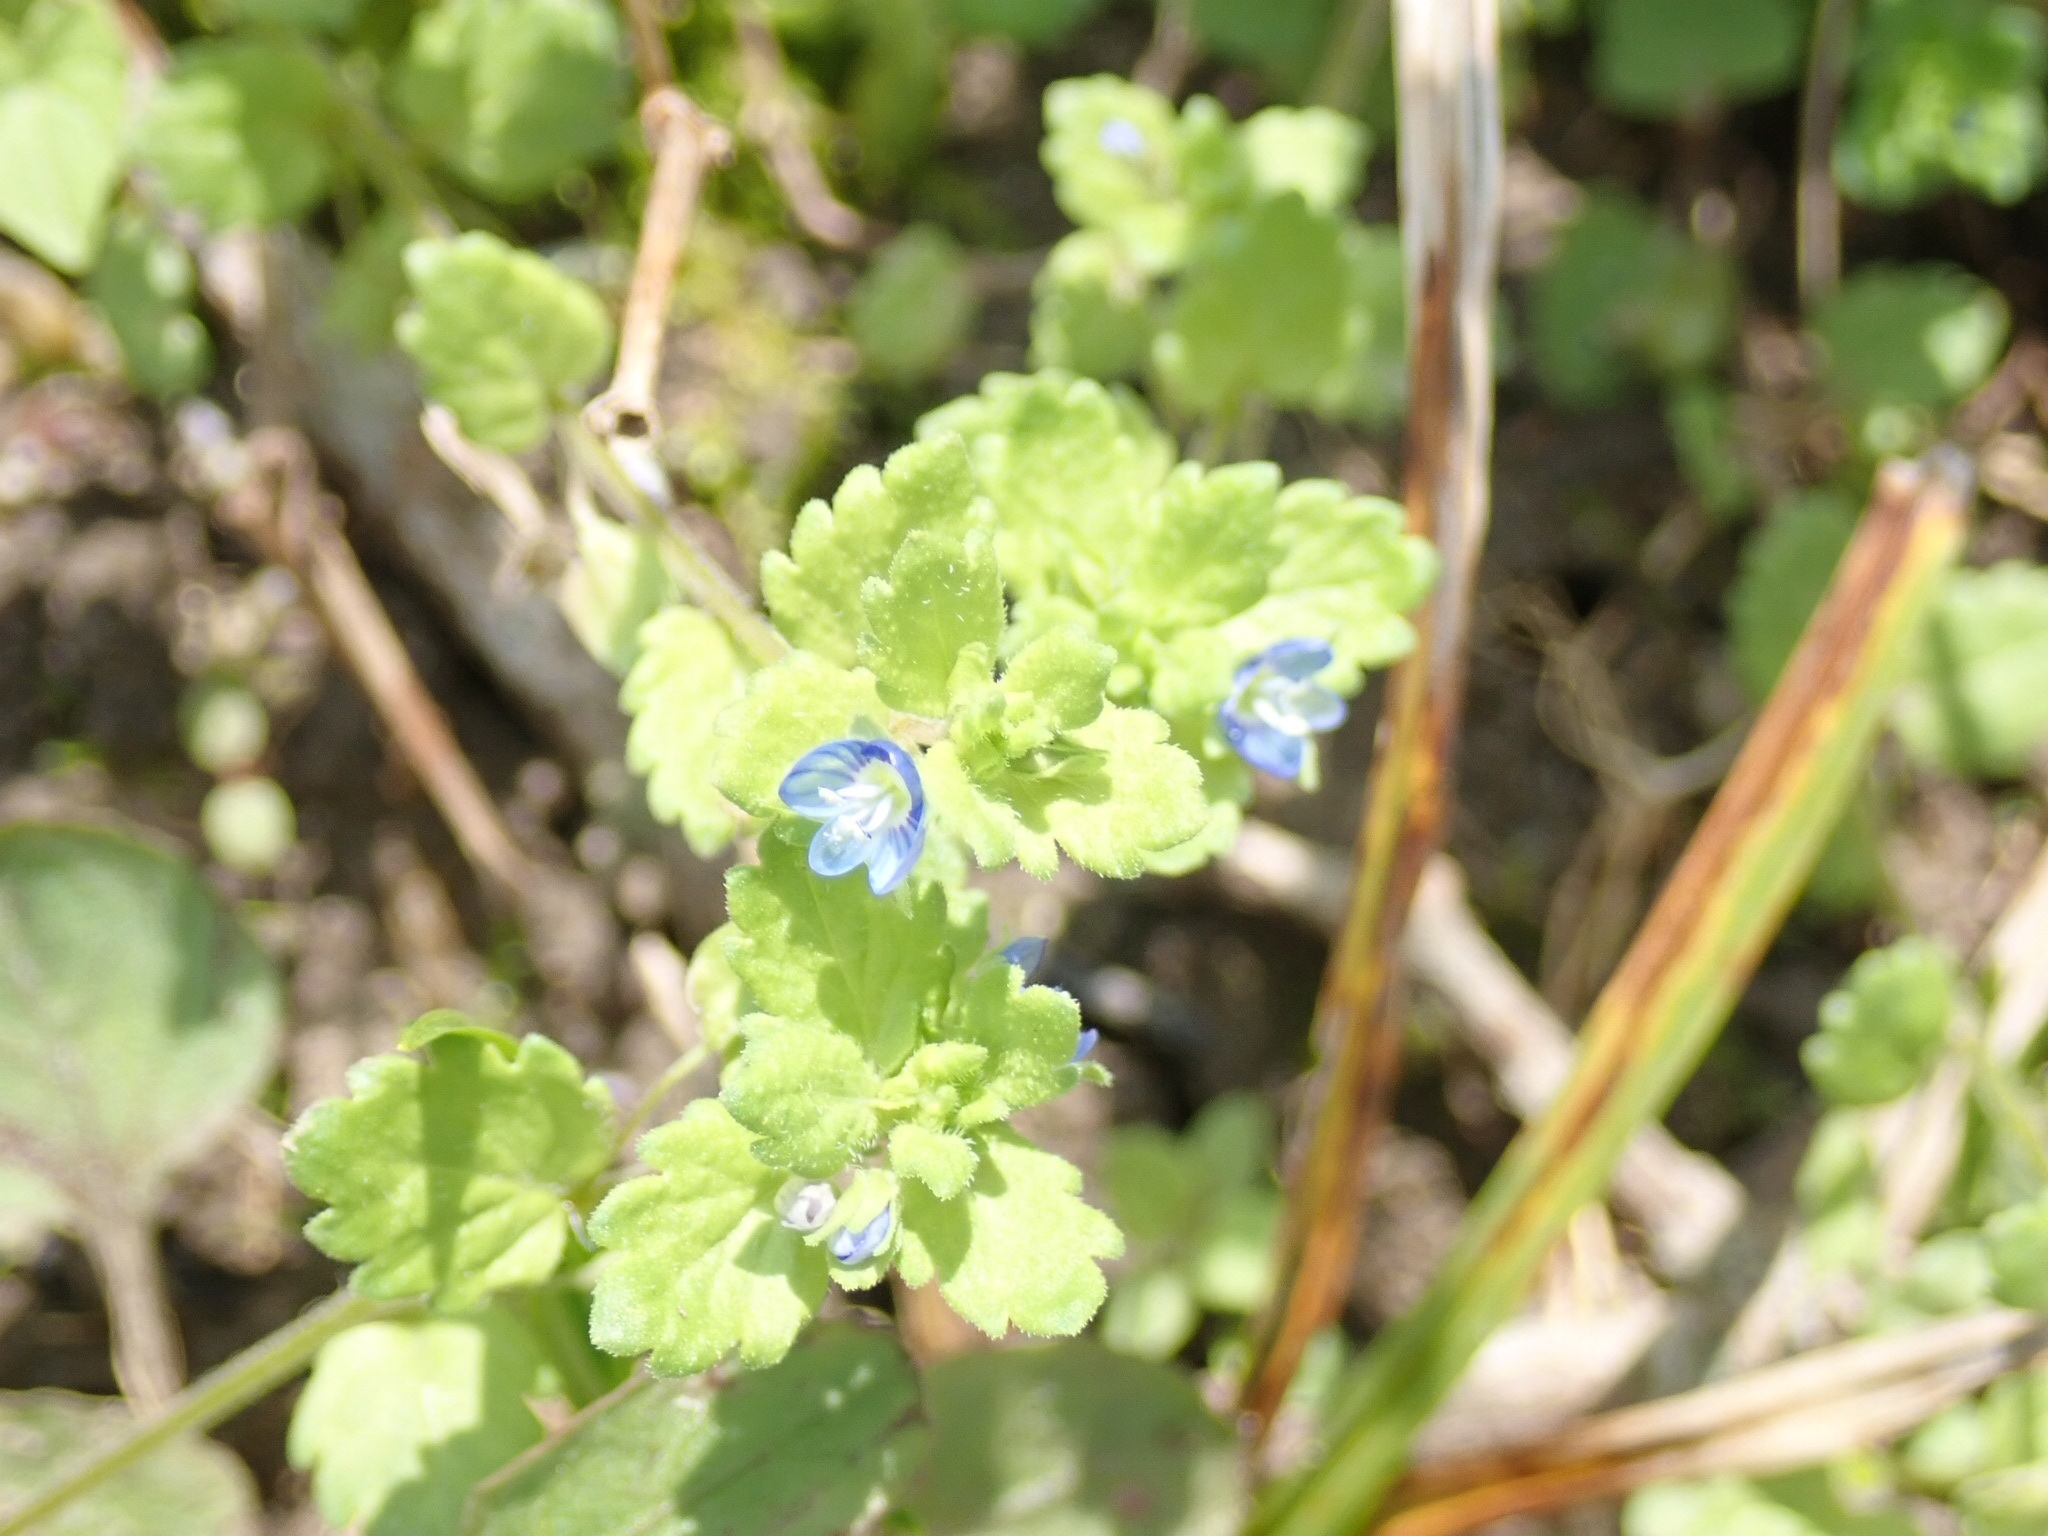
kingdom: Plantae
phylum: Tracheophyta
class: Magnoliopsida
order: Lamiales
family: Plantaginaceae
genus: Veronica
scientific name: Veronica polita
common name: Grey field-speedwell
